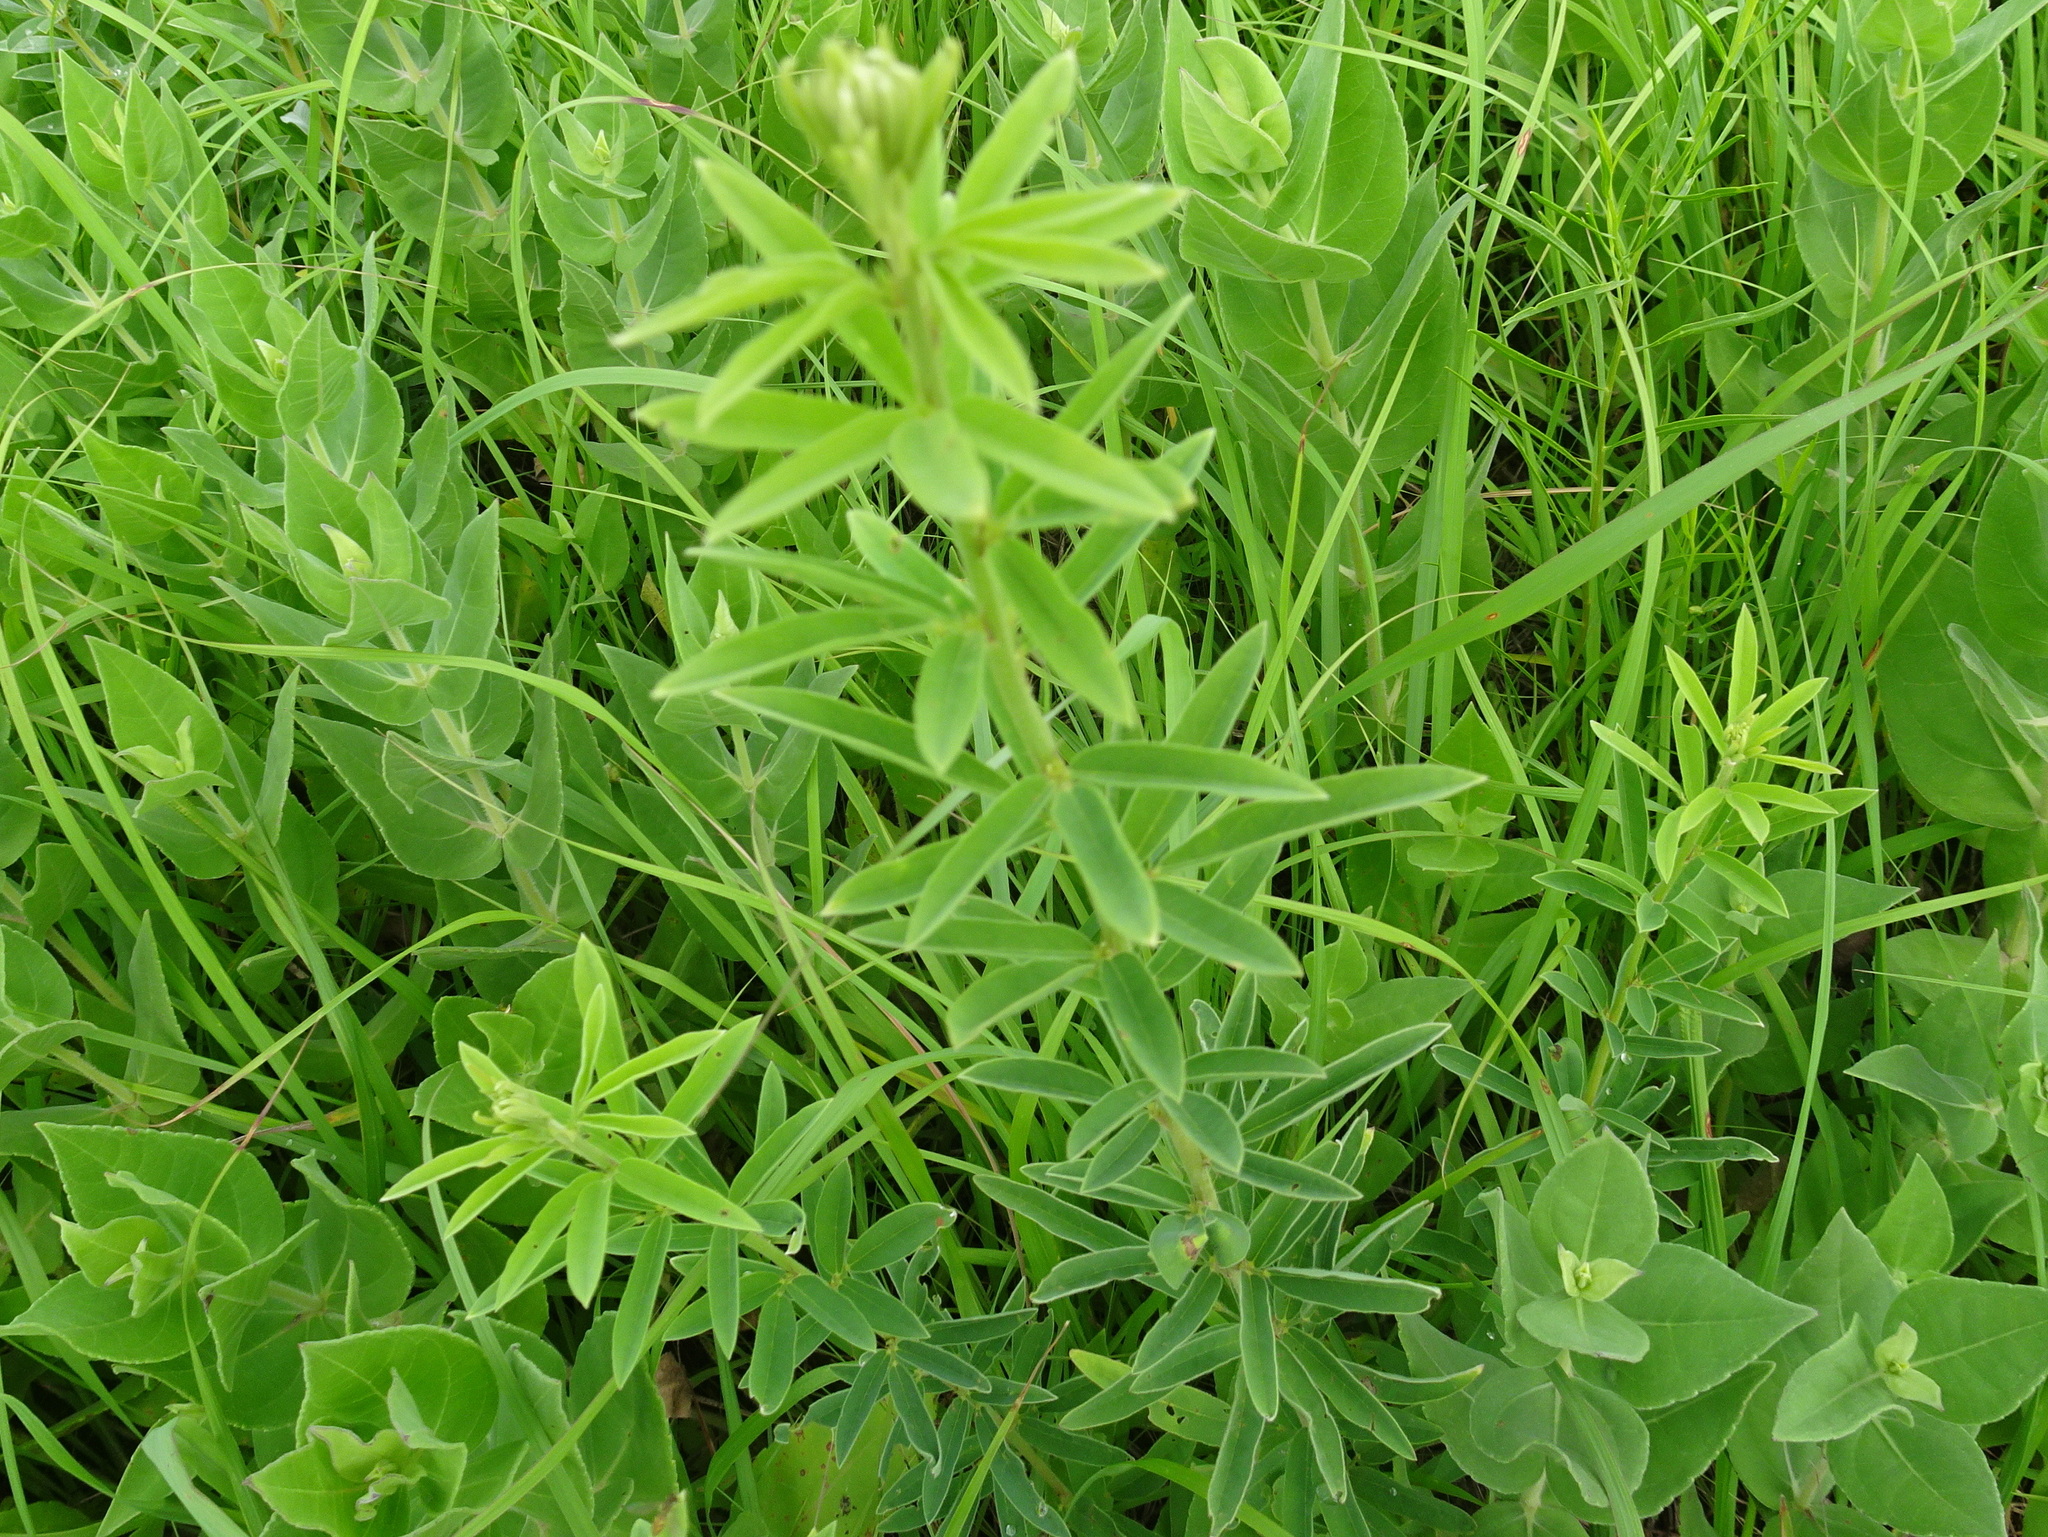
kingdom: Plantae
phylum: Tracheophyta
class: Magnoliopsida
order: Fabales
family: Fabaceae
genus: Desmodium
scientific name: Desmodium sessilifolium
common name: Sessile tick-clover
